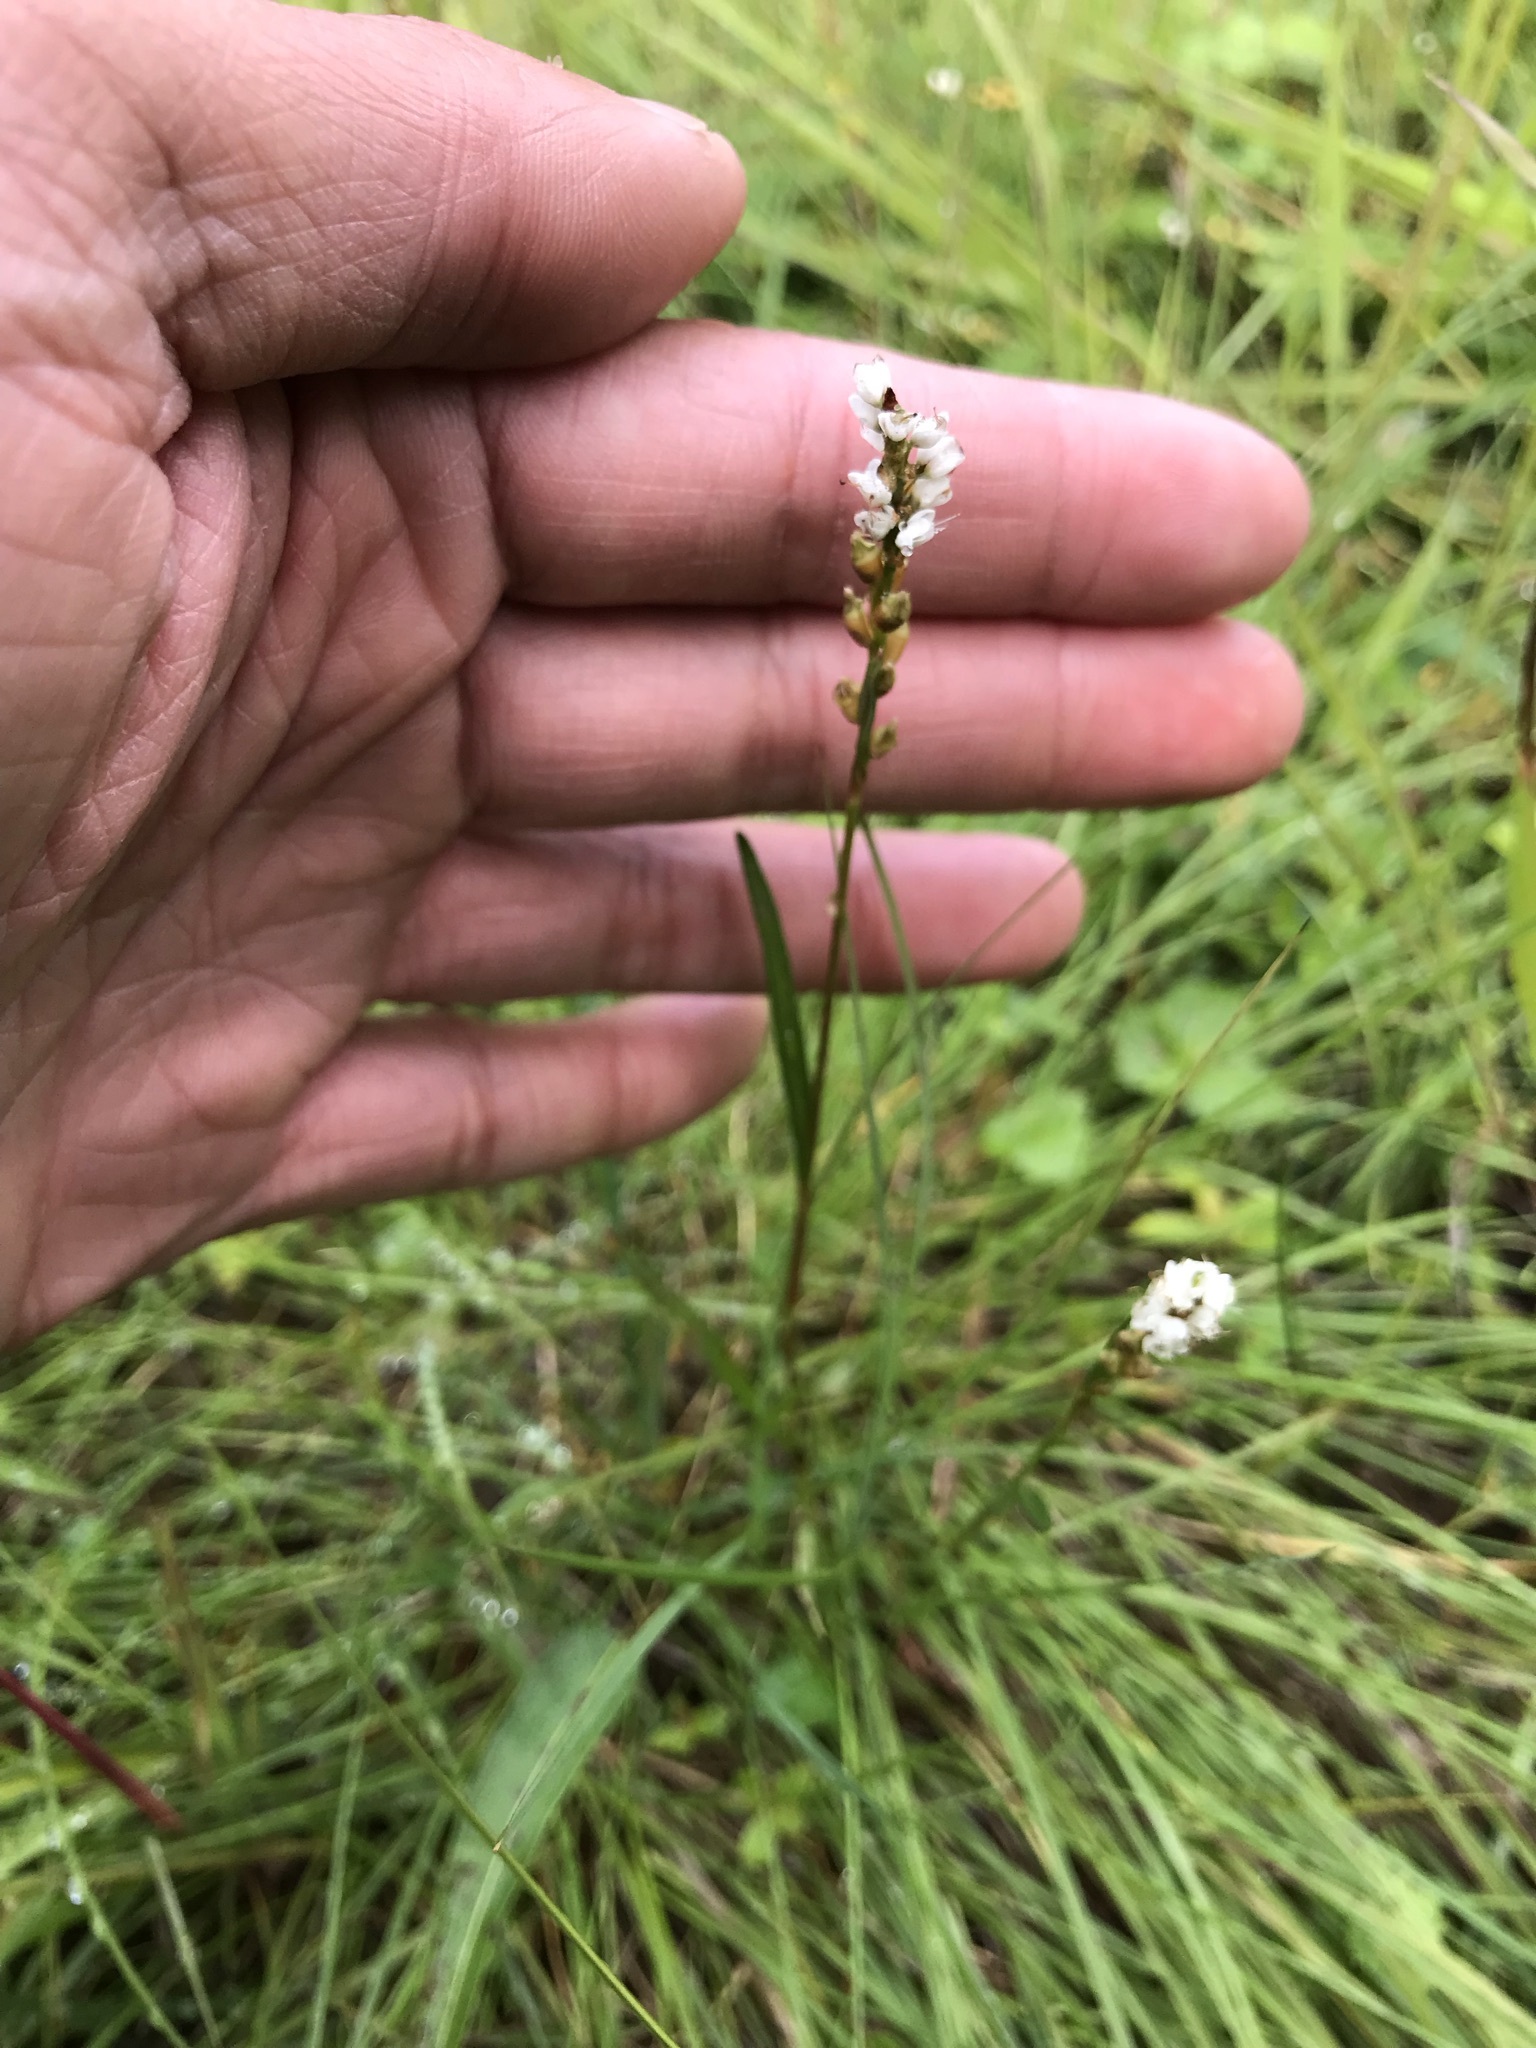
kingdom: Plantae
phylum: Tracheophyta
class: Magnoliopsida
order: Caryophyllales
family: Polygonaceae
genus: Bistorta
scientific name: Bistorta vivipara
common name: Alpine bistort
